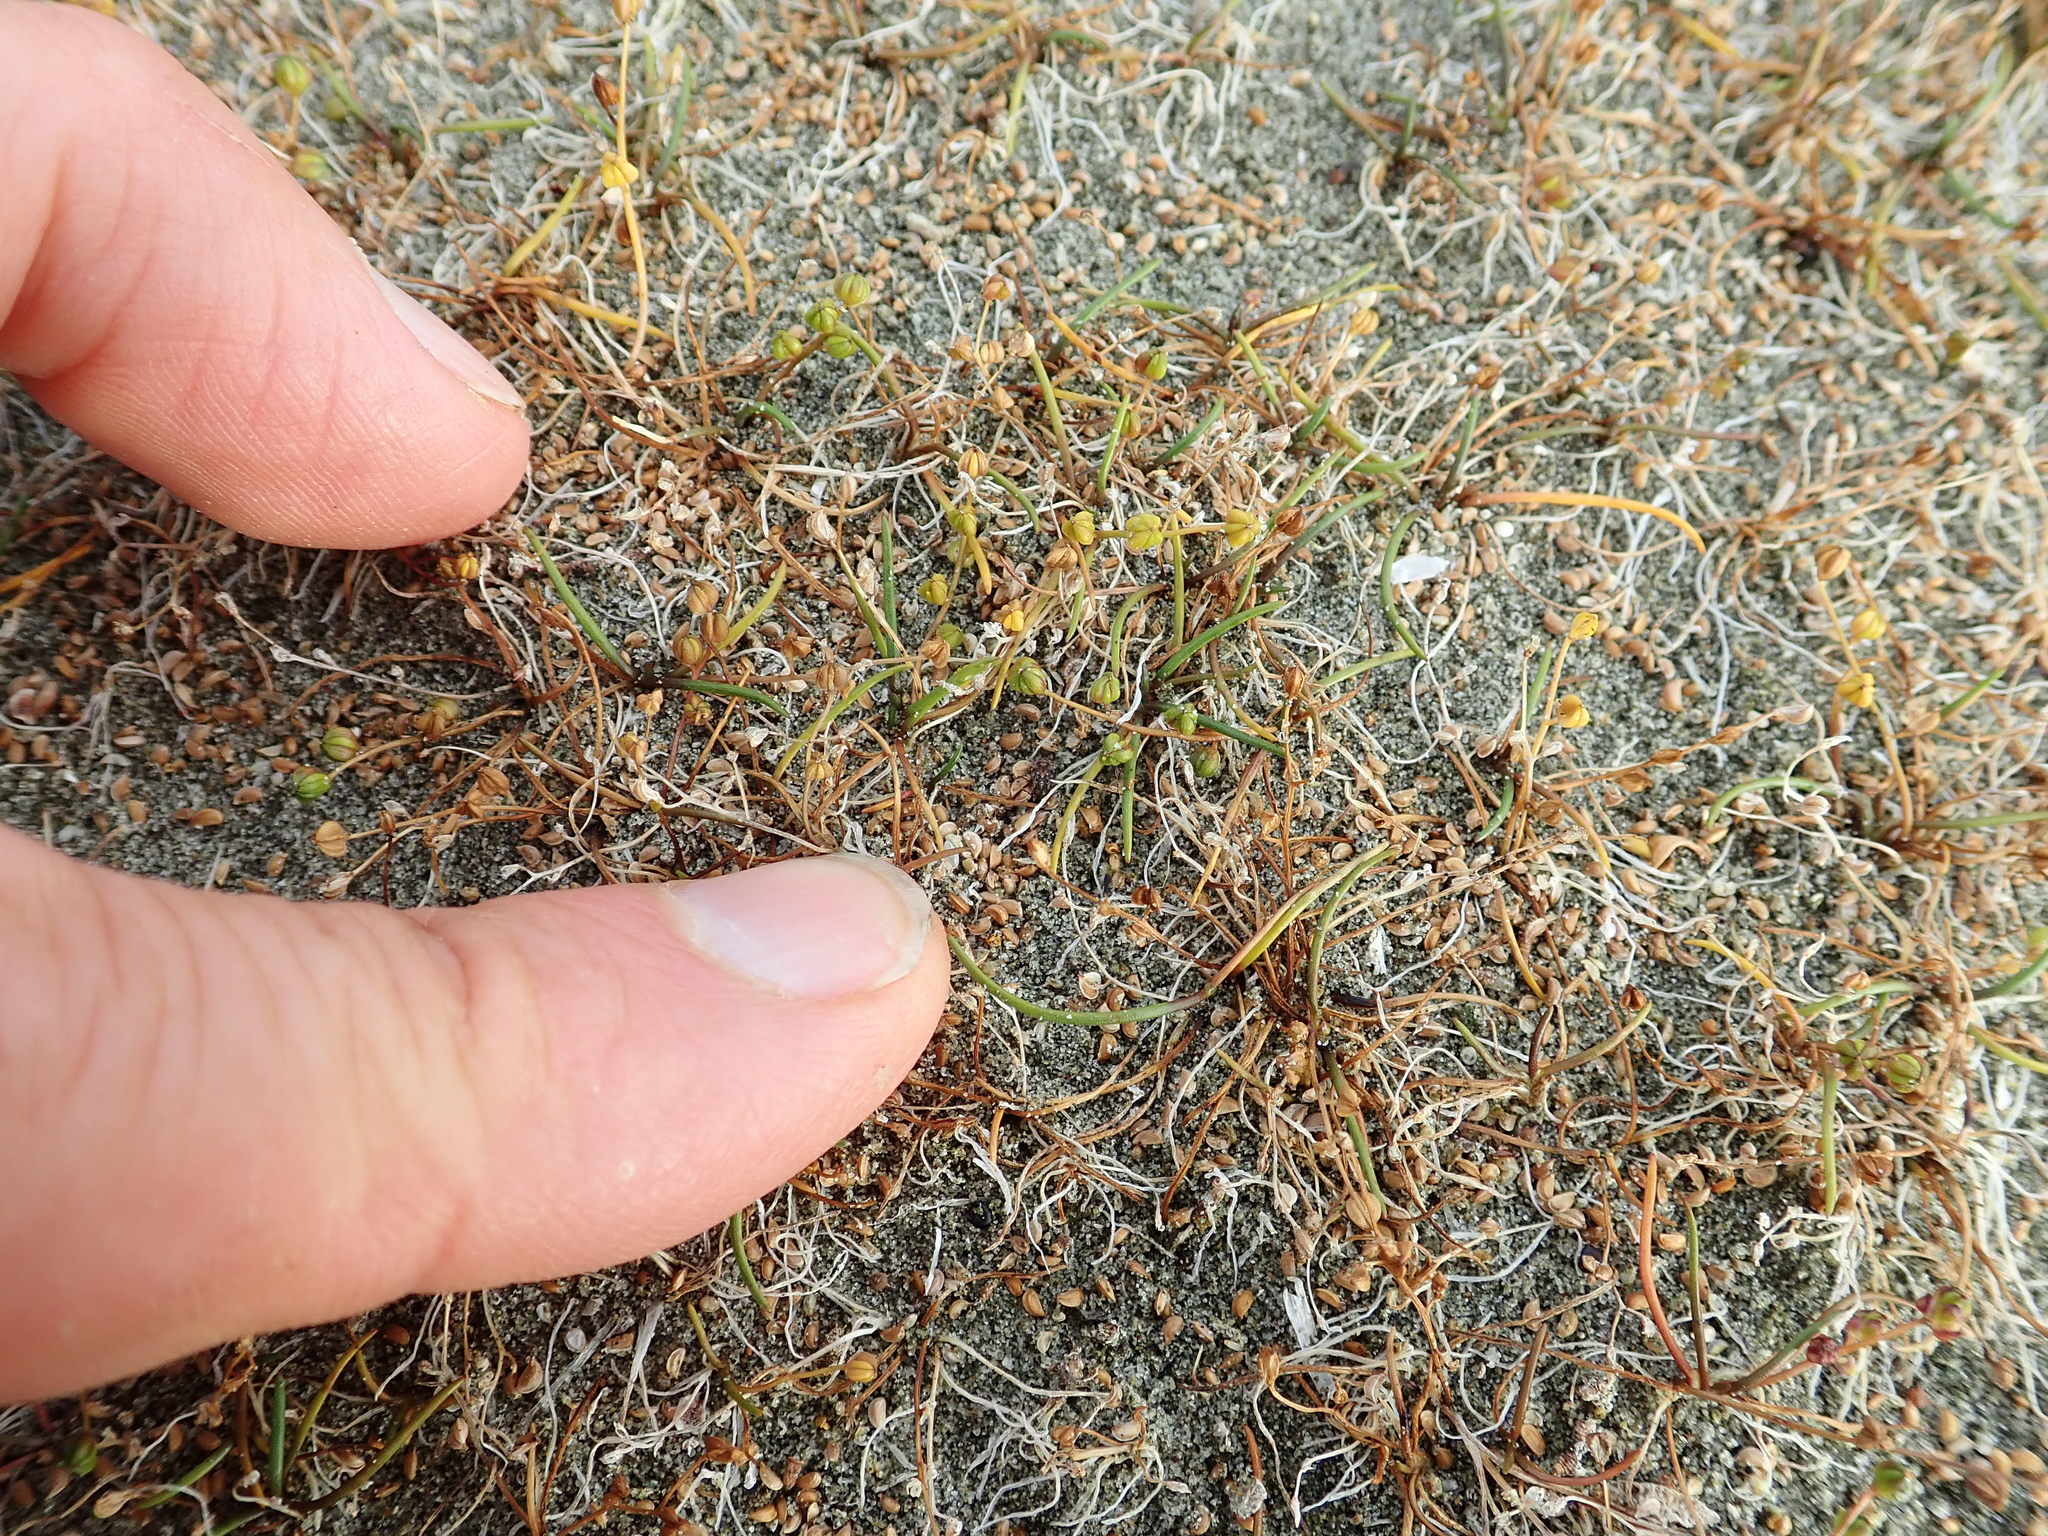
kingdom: Plantae
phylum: Tracheophyta
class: Liliopsida
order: Alismatales
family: Juncaginaceae
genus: Triglochin
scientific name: Triglochin striata
